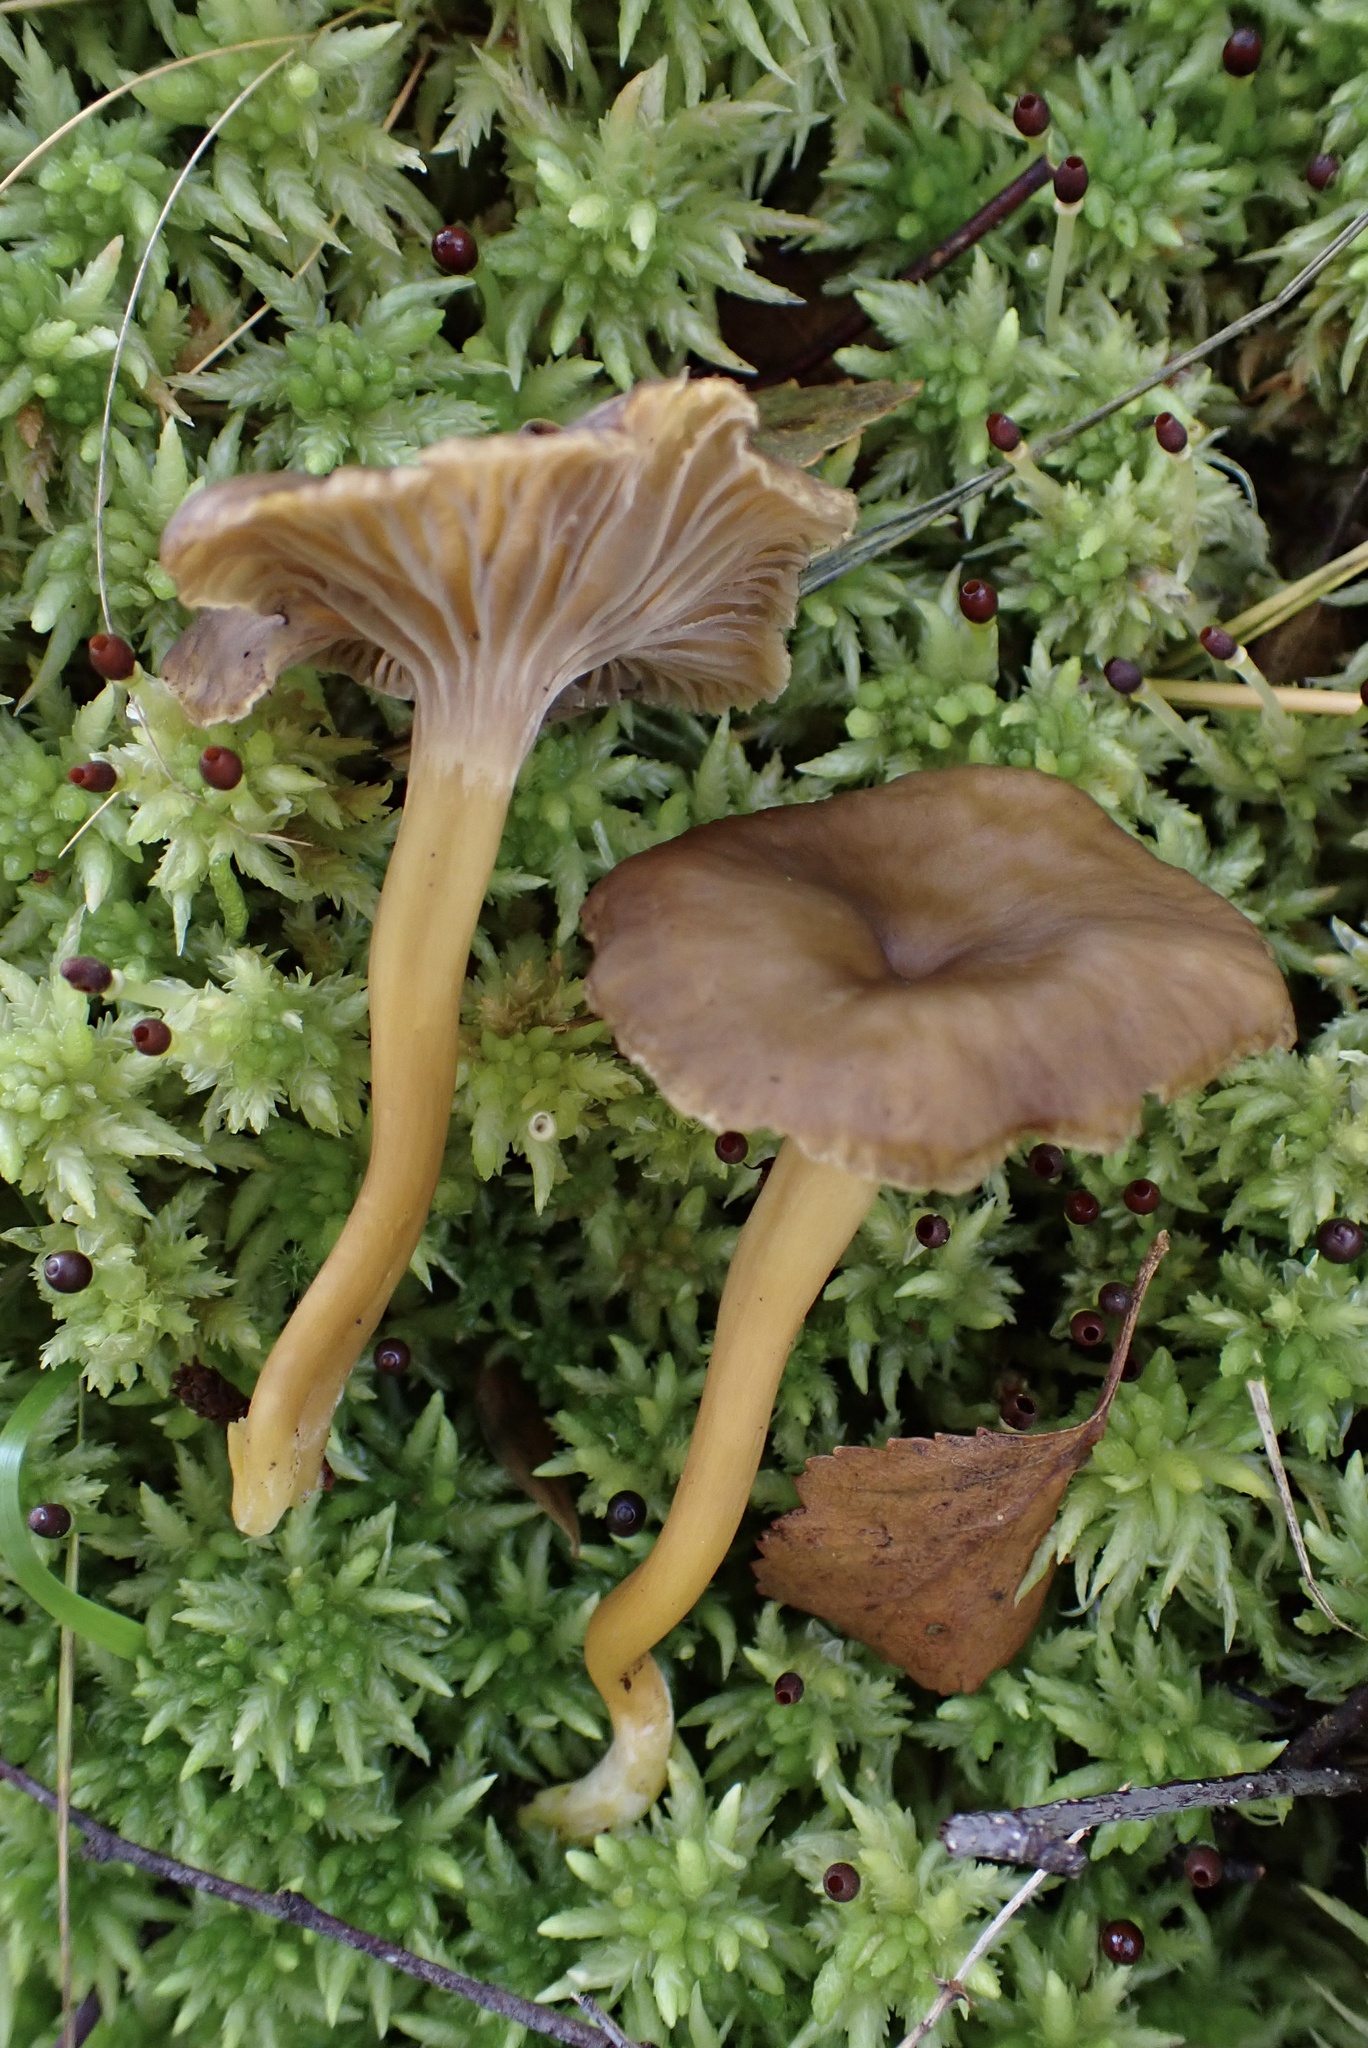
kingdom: Fungi
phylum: Basidiomycota
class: Agaricomycetes
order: Cantharellales
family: Hydnaceae
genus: Craterellus
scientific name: Craterellus tubaeformis
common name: Yellowfoot
